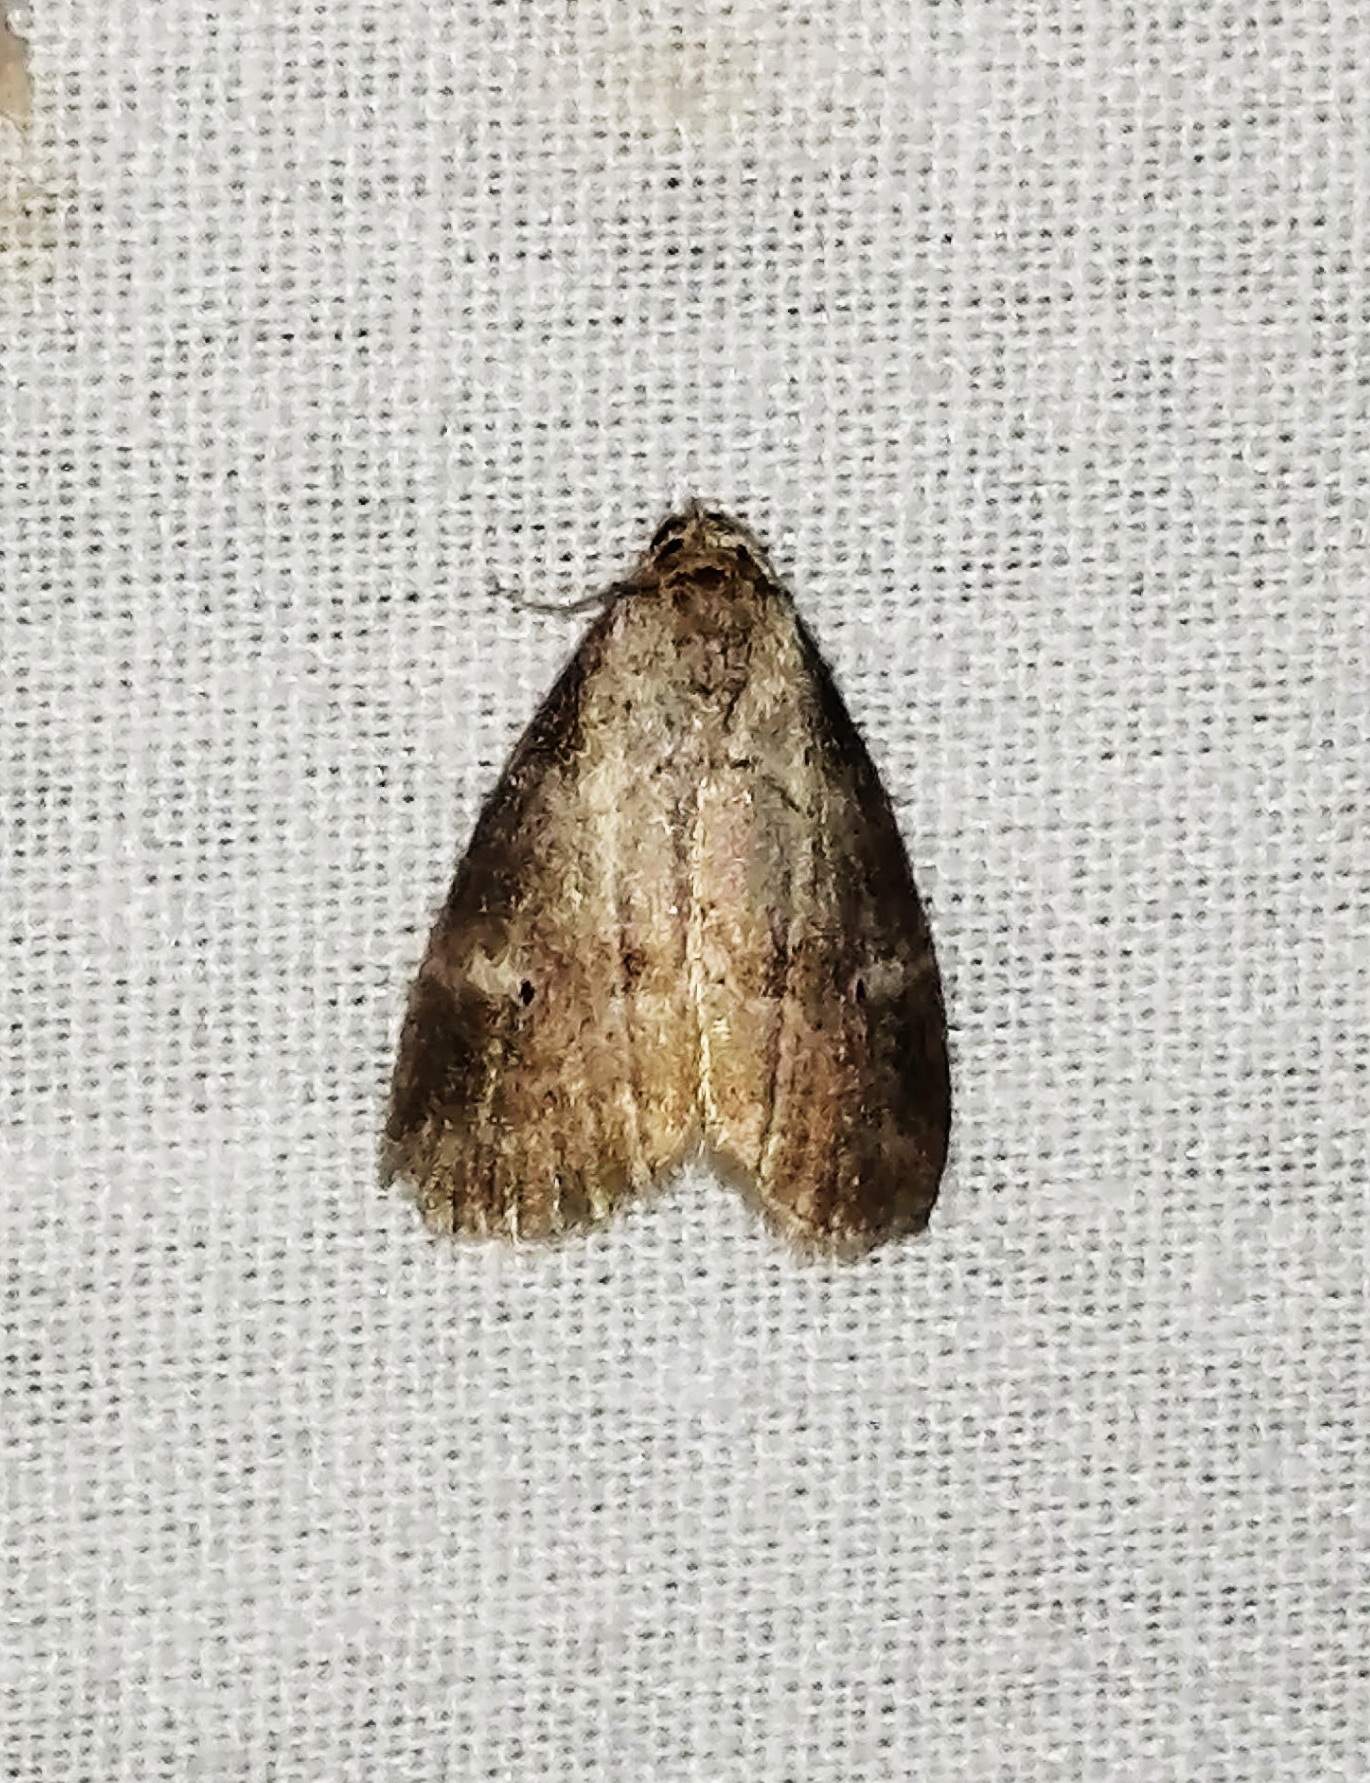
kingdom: Animalia
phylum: Arthropoda
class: Insecta
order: Lepidoptera
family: Erebidae
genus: Hyperstrotia
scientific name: Hyperstrotia pervertens
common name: Dotted graylet
